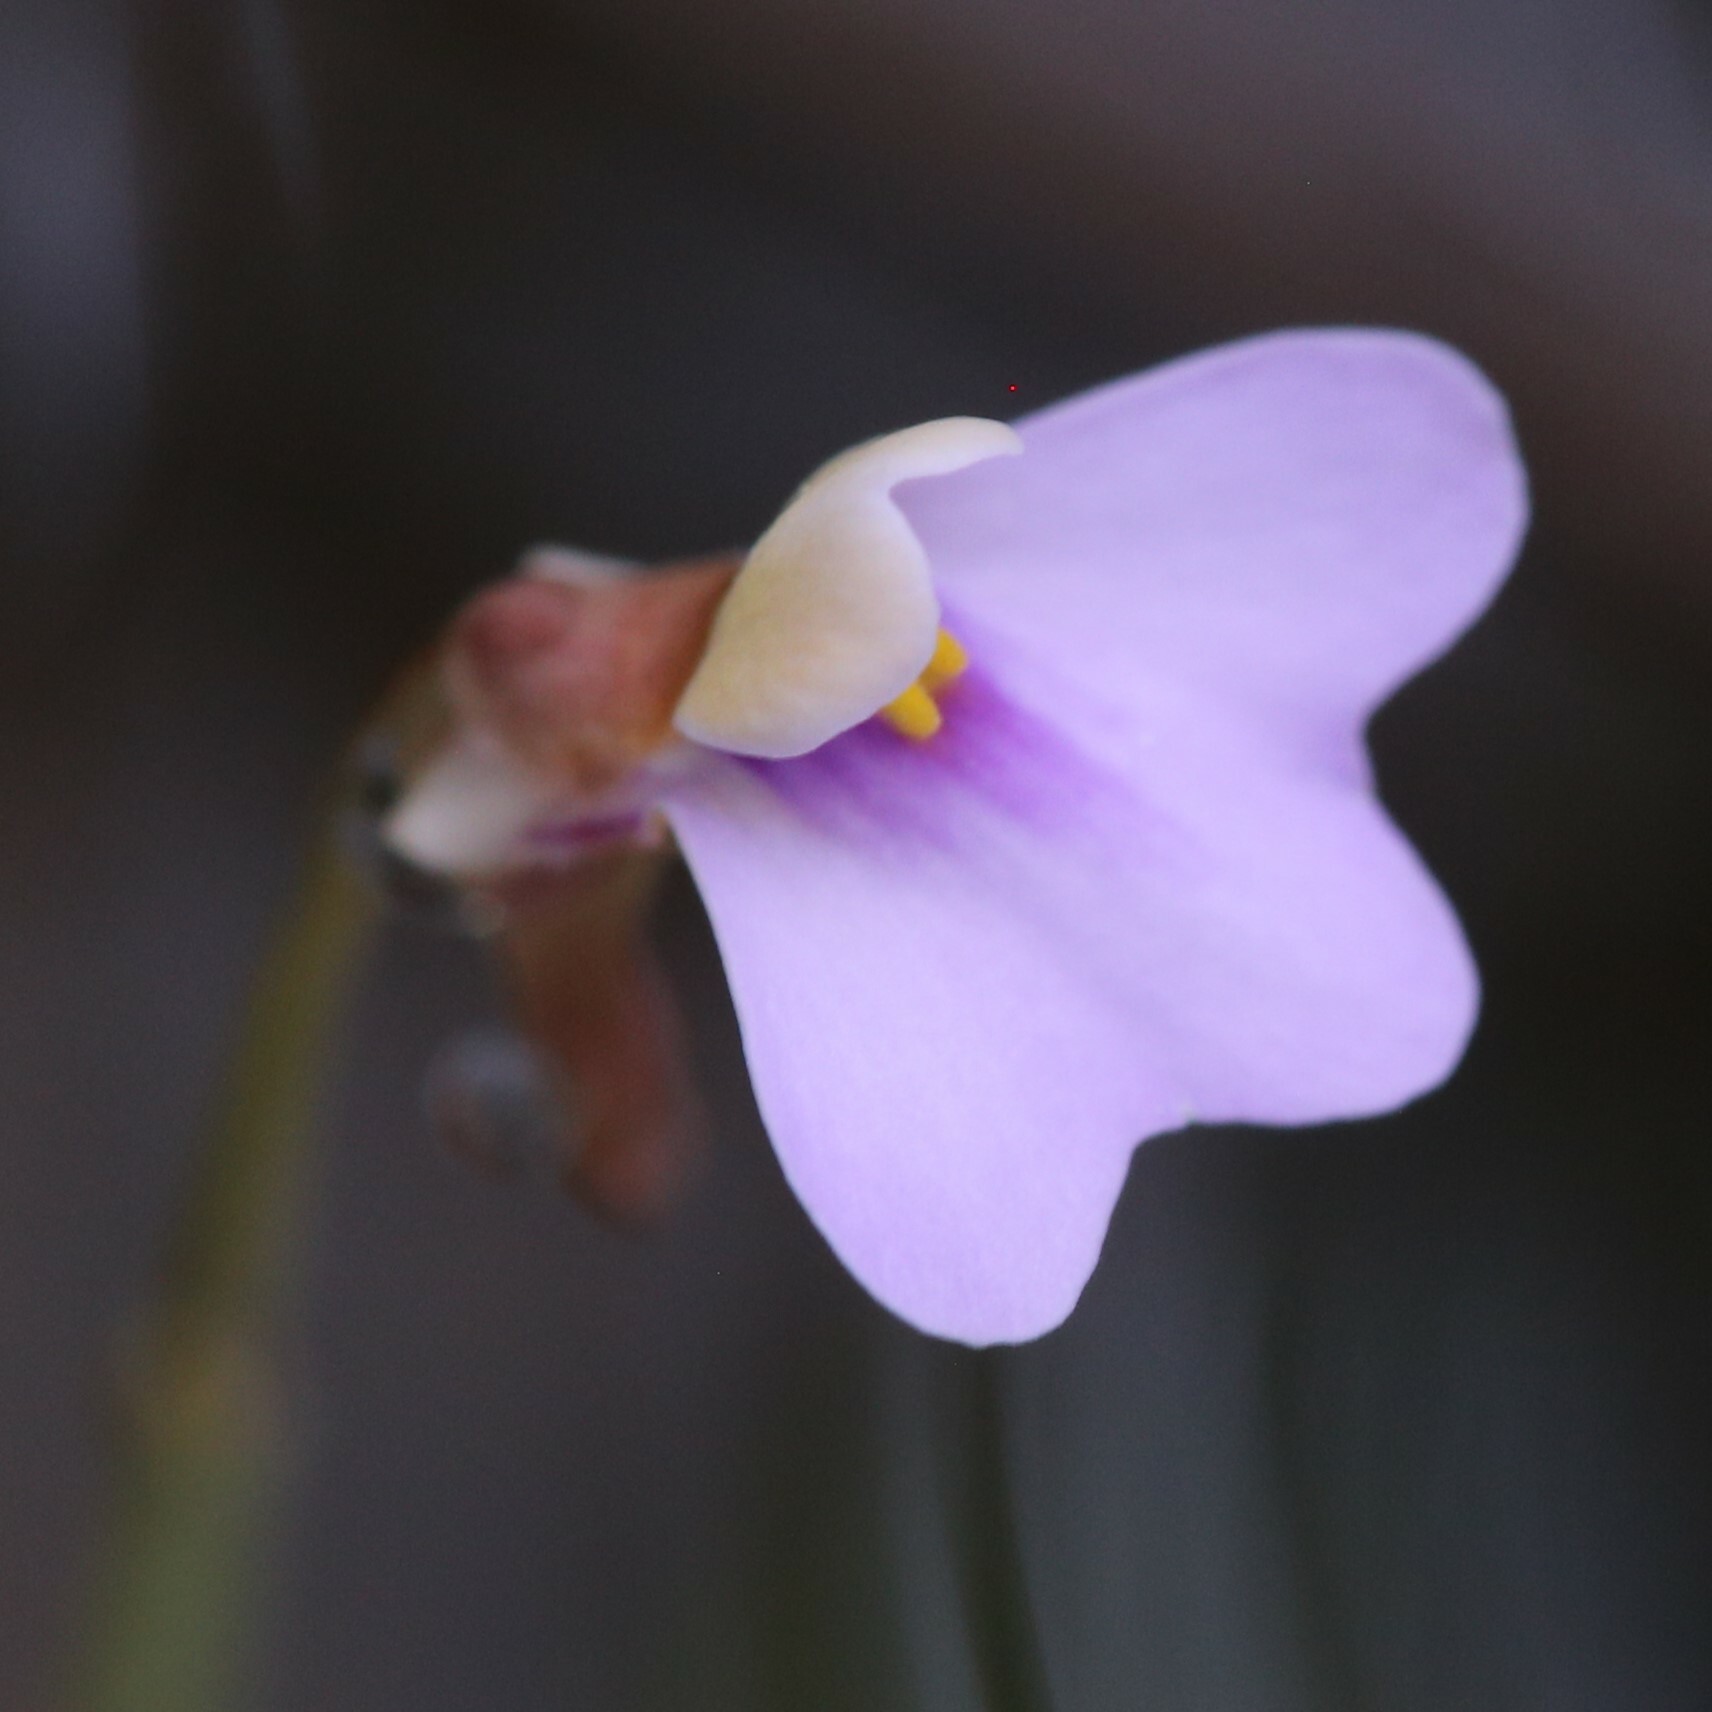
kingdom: Plantae
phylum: Tracheophyta
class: Magnoliopsida
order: Lamiales
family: Lentibulariaceae
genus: Utricularia
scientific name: Utricularia lasiocaulis
